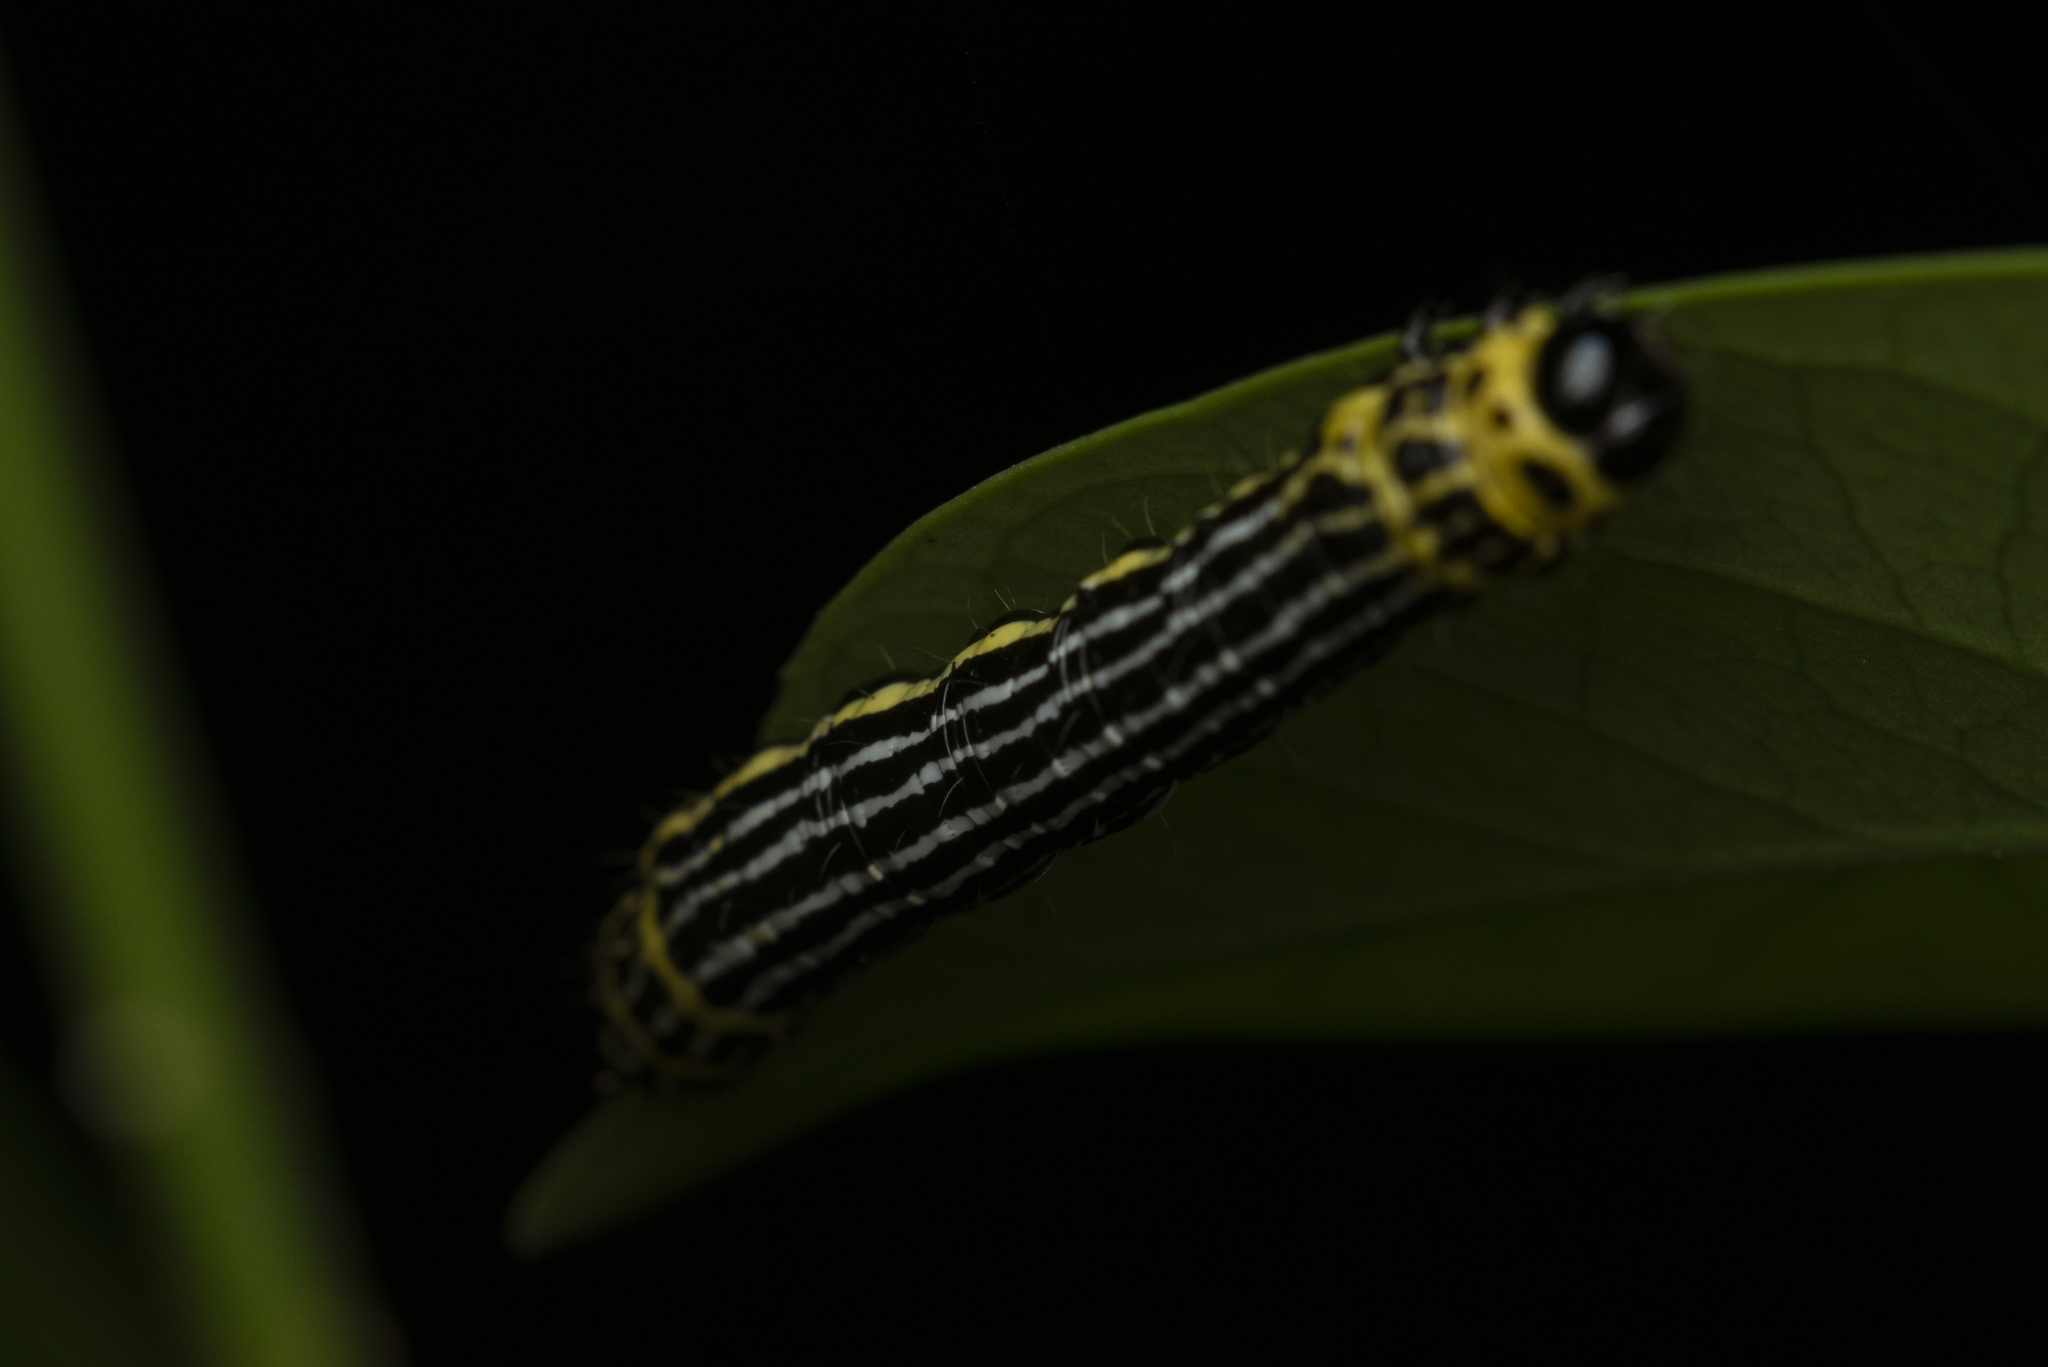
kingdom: Animalia
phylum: Arthropoda
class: Insecta
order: Lepidoptera
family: Geometridae
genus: Abraxas
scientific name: Abraxas amicula
